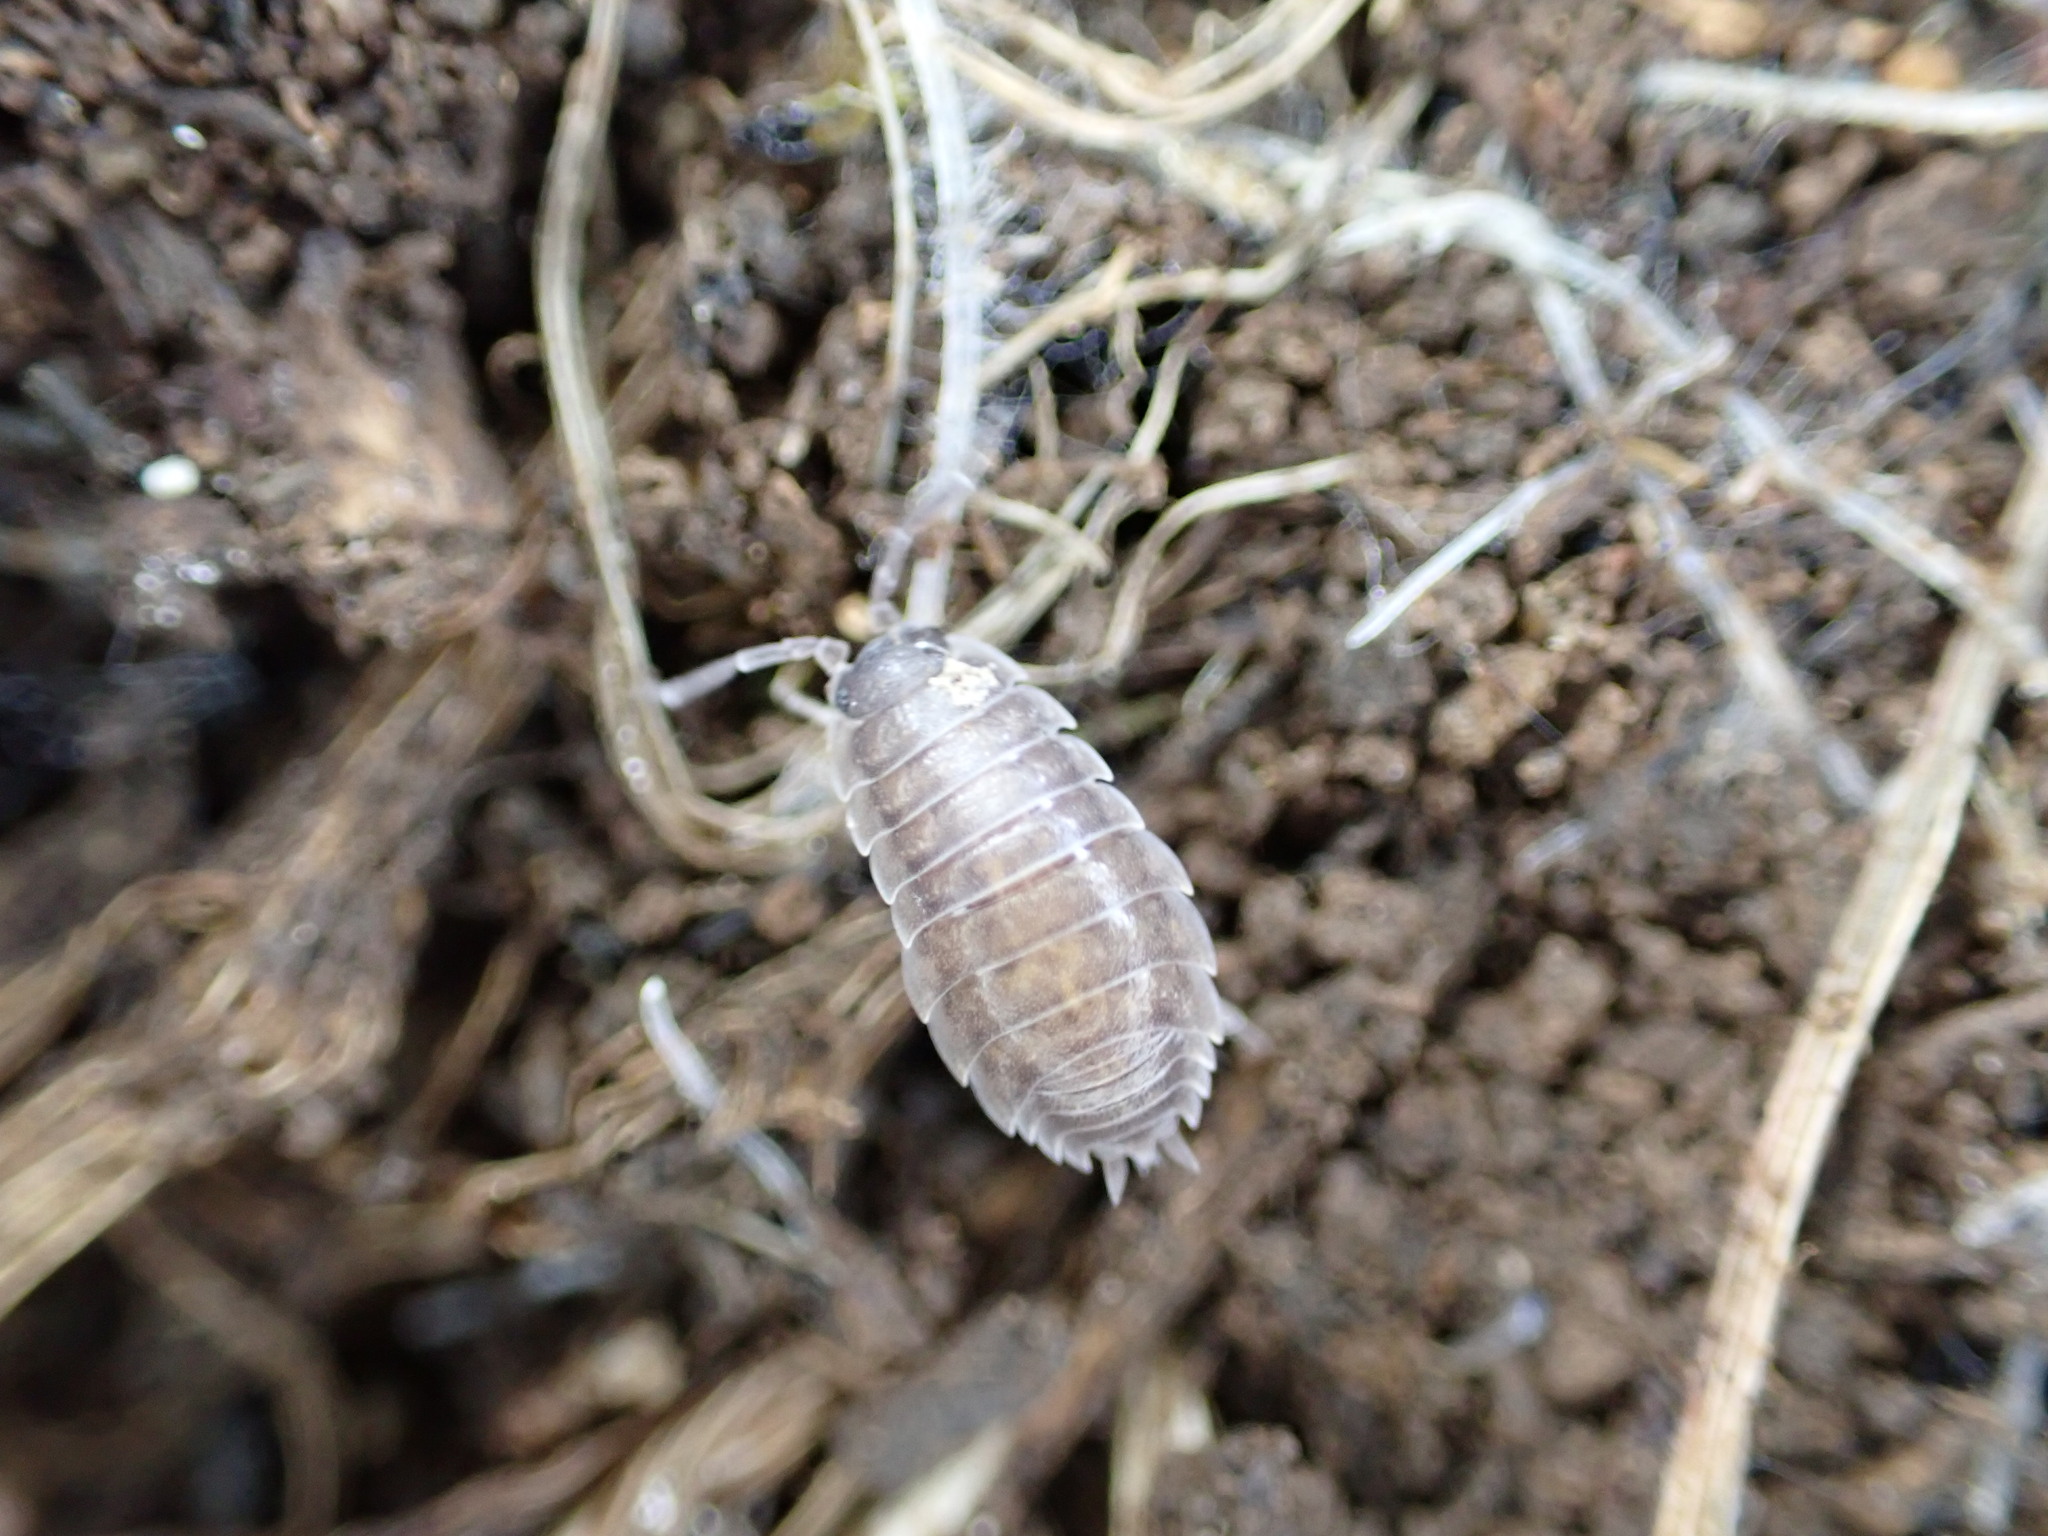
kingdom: Animalia
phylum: Arthropoda
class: Malacostraca
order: Isopoda
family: Porcellionidae
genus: Porcellio
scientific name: Porcellio orarum
